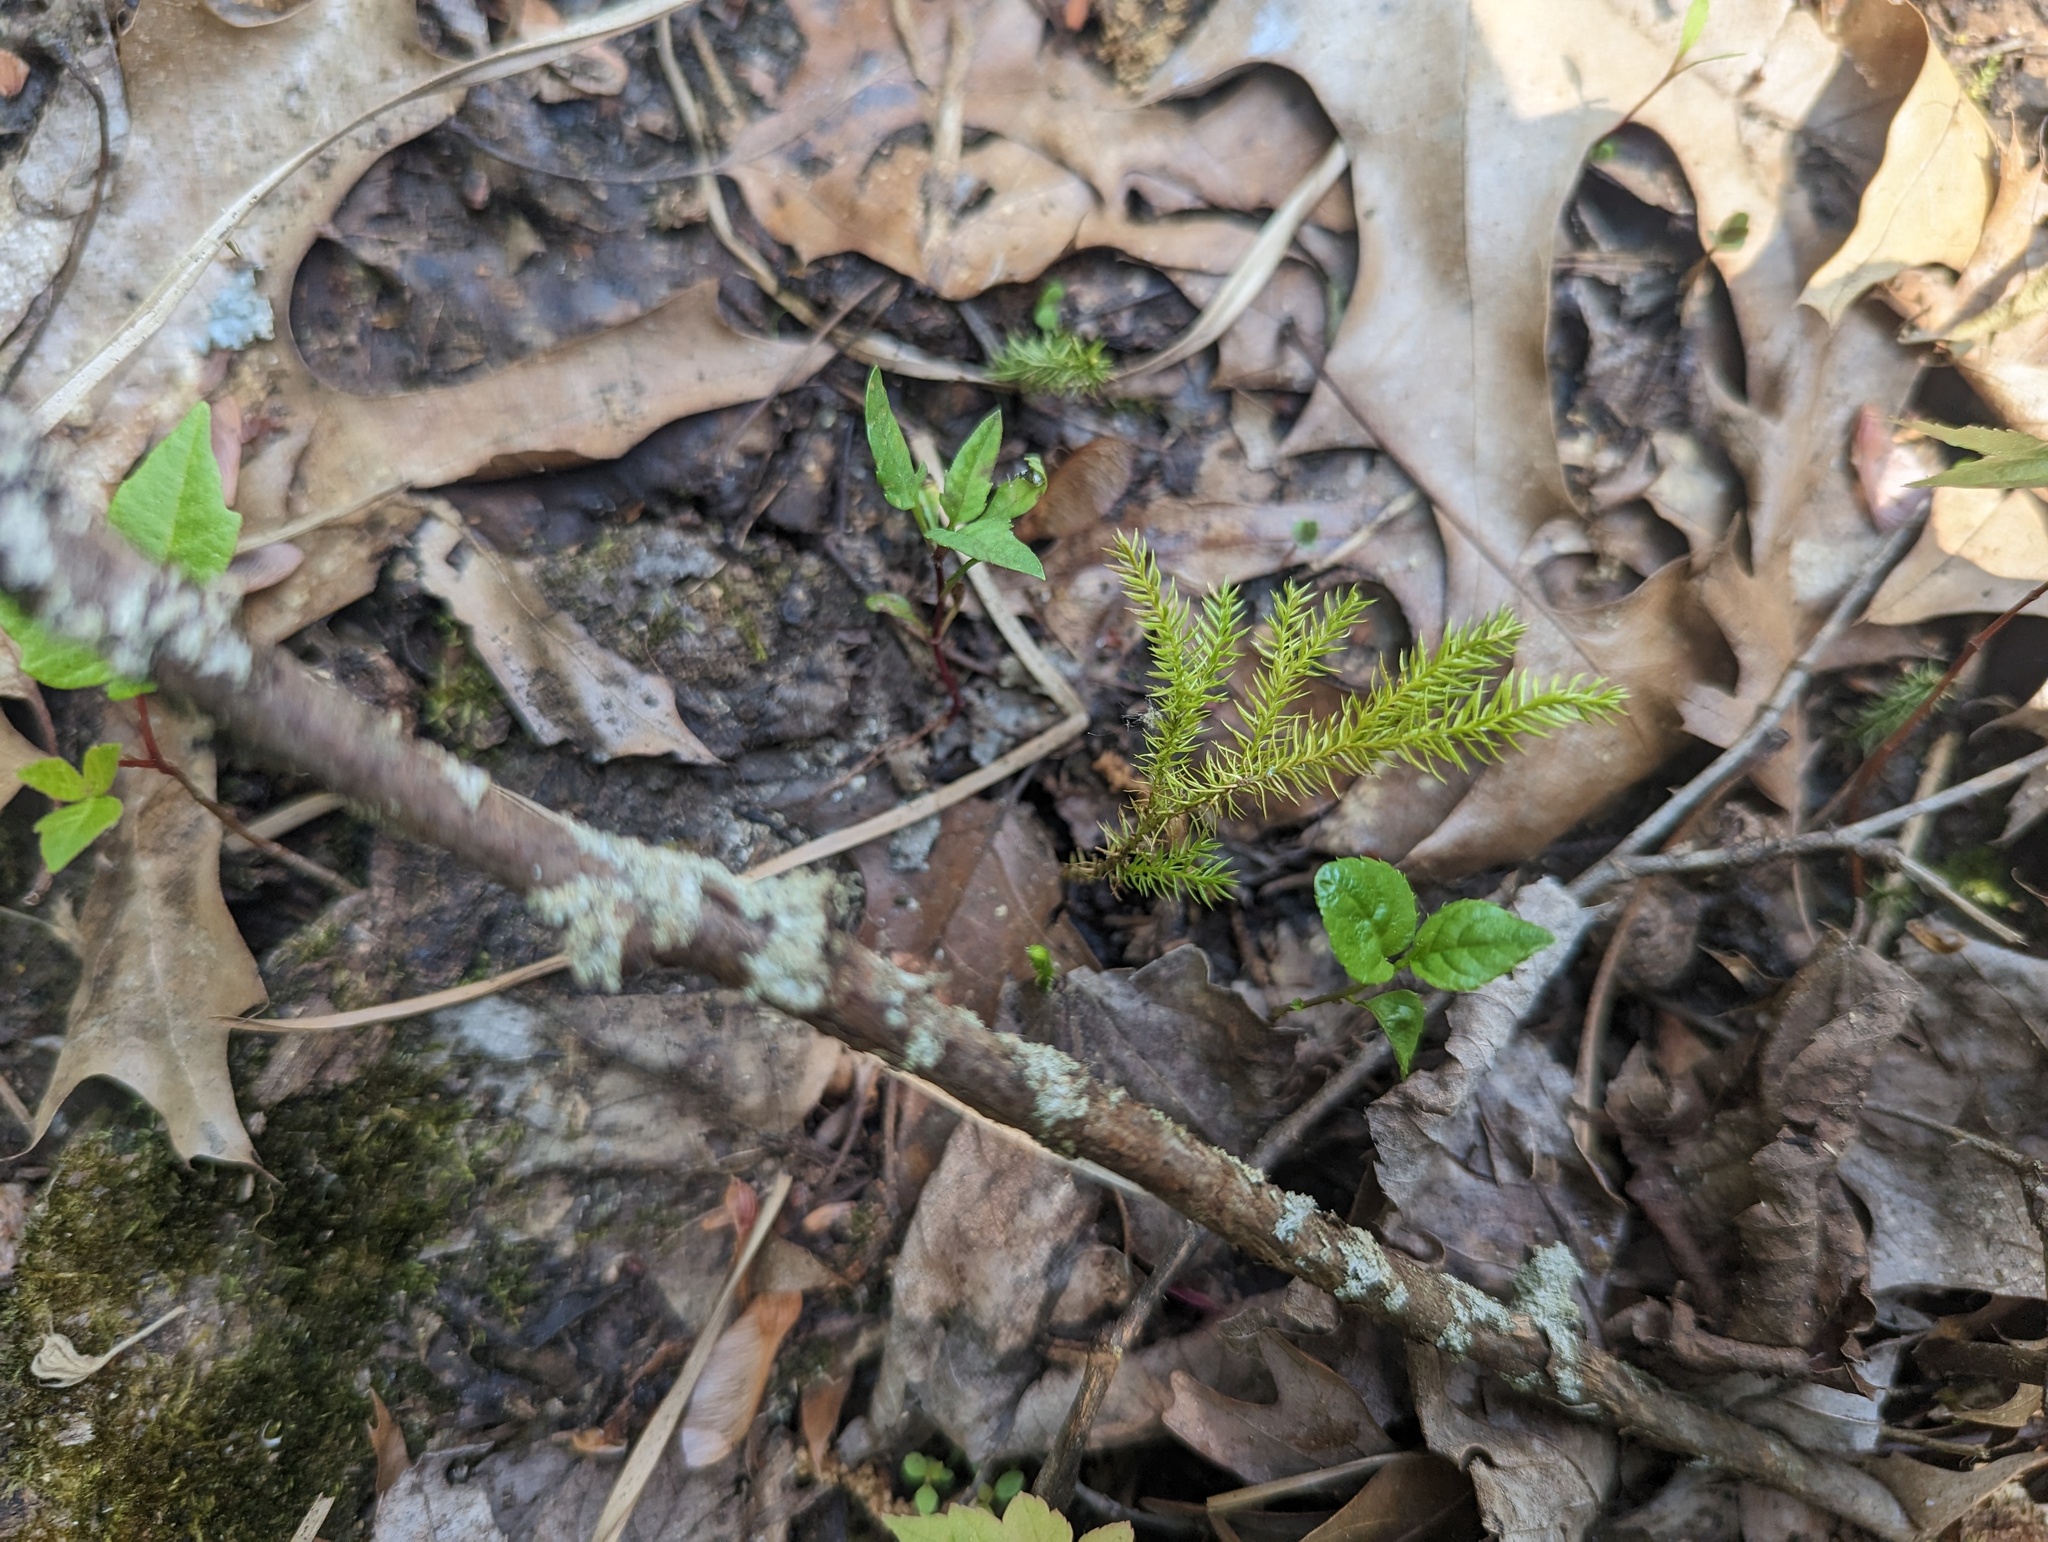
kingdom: Plantae
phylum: Tracheophyta
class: Lycopodiopsida
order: Lycopodiales
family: Lycopodiaceae
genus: Dendrolycopodium
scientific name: Dendrolycopodium dendroideum
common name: Northern tree-clubmoss
